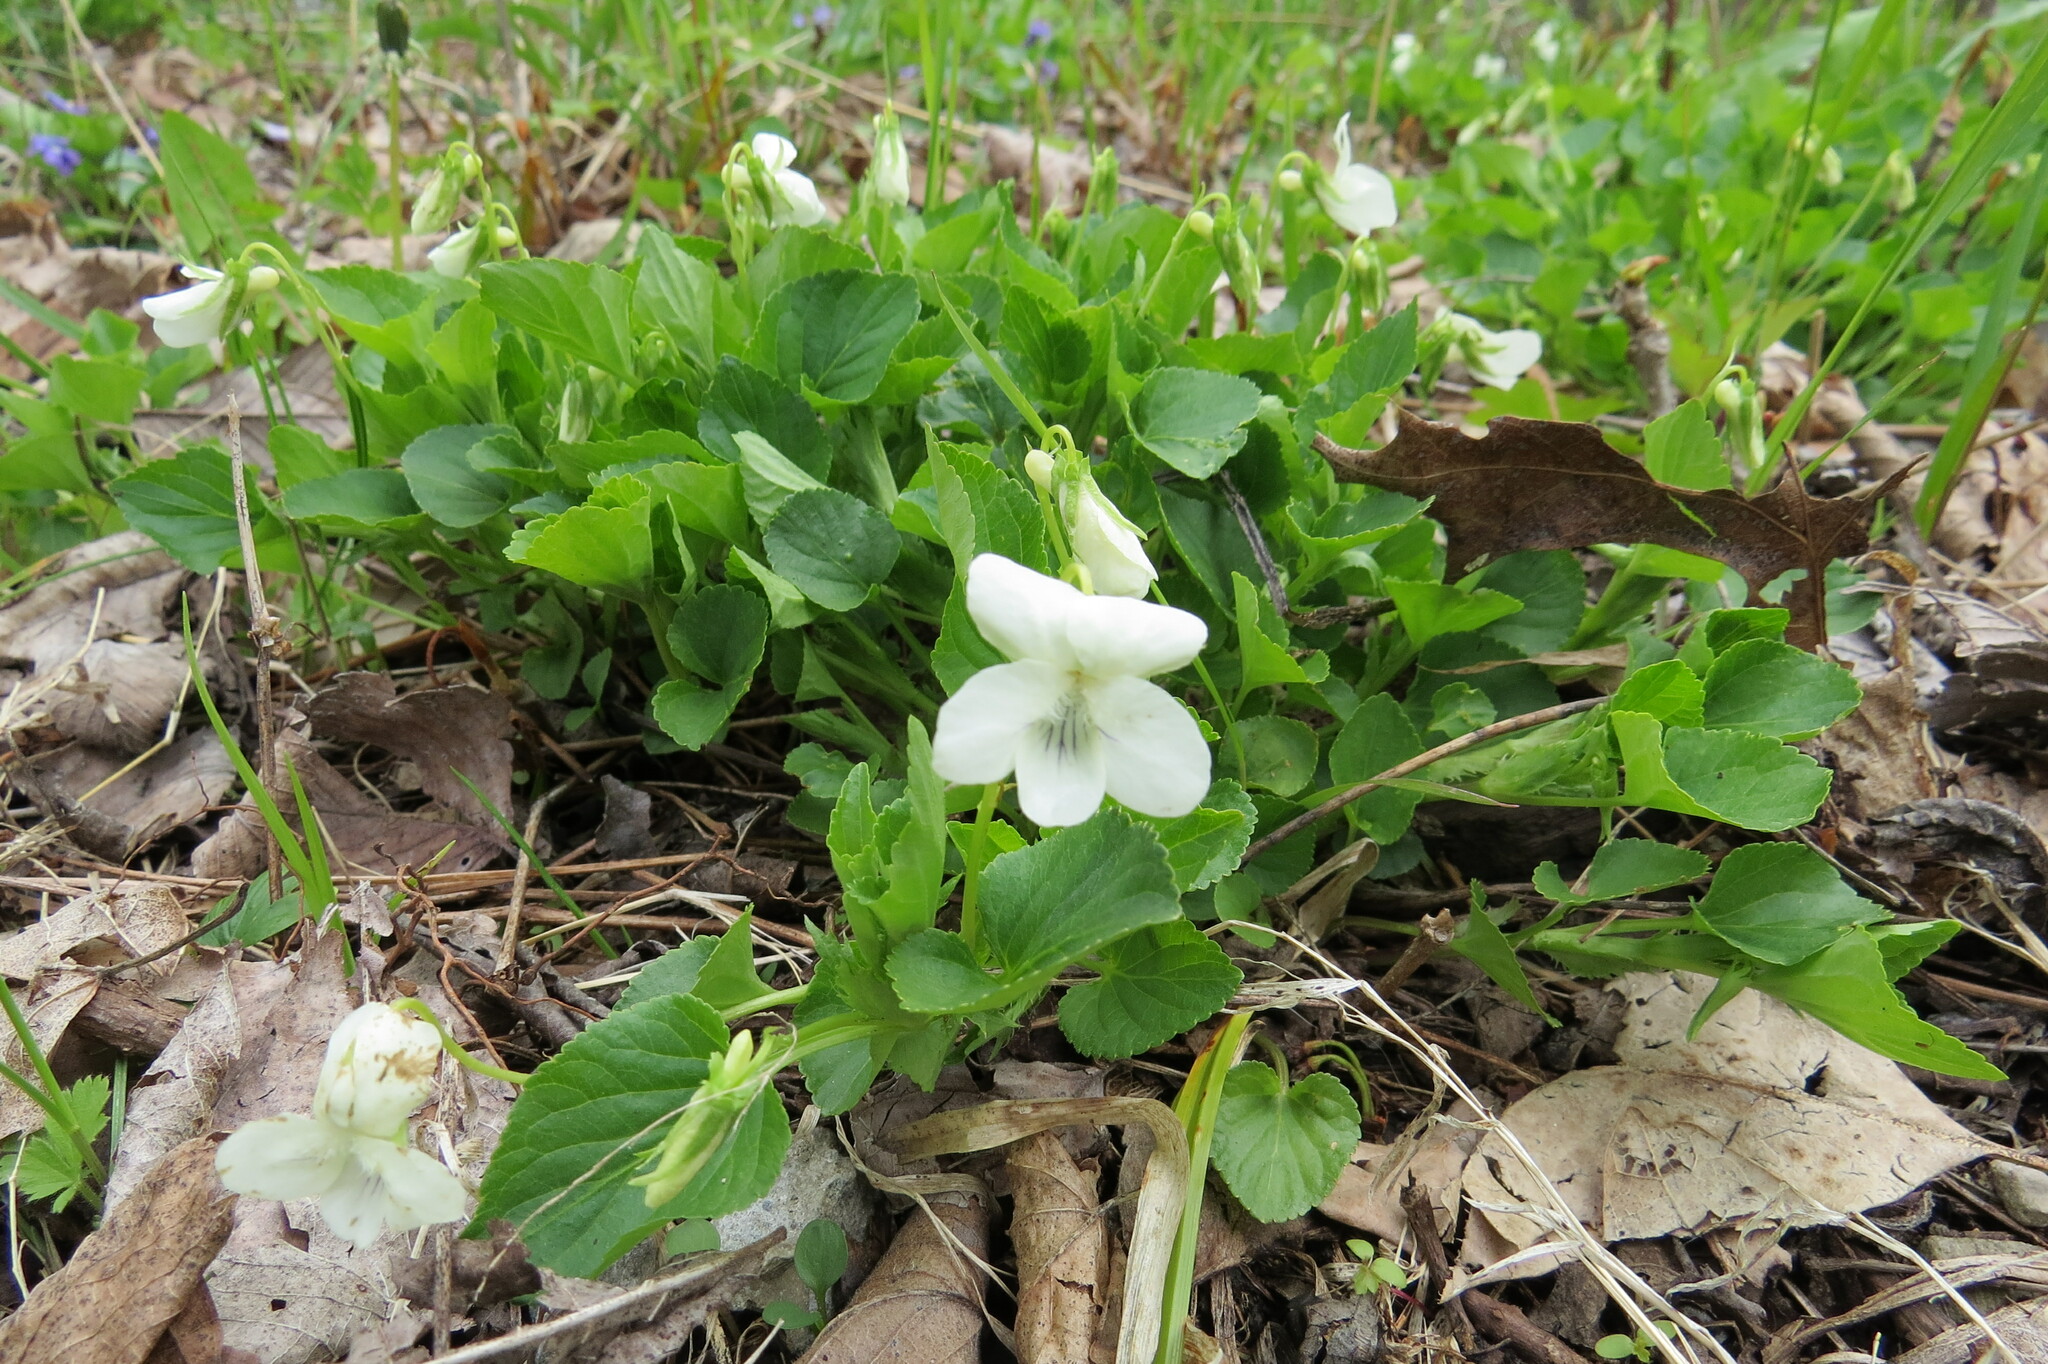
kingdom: Plantae
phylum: Tracheophyta
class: Magnoliopsida
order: Malpighiales
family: Violaceae
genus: Viola
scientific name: Viola striata
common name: Cream violet
